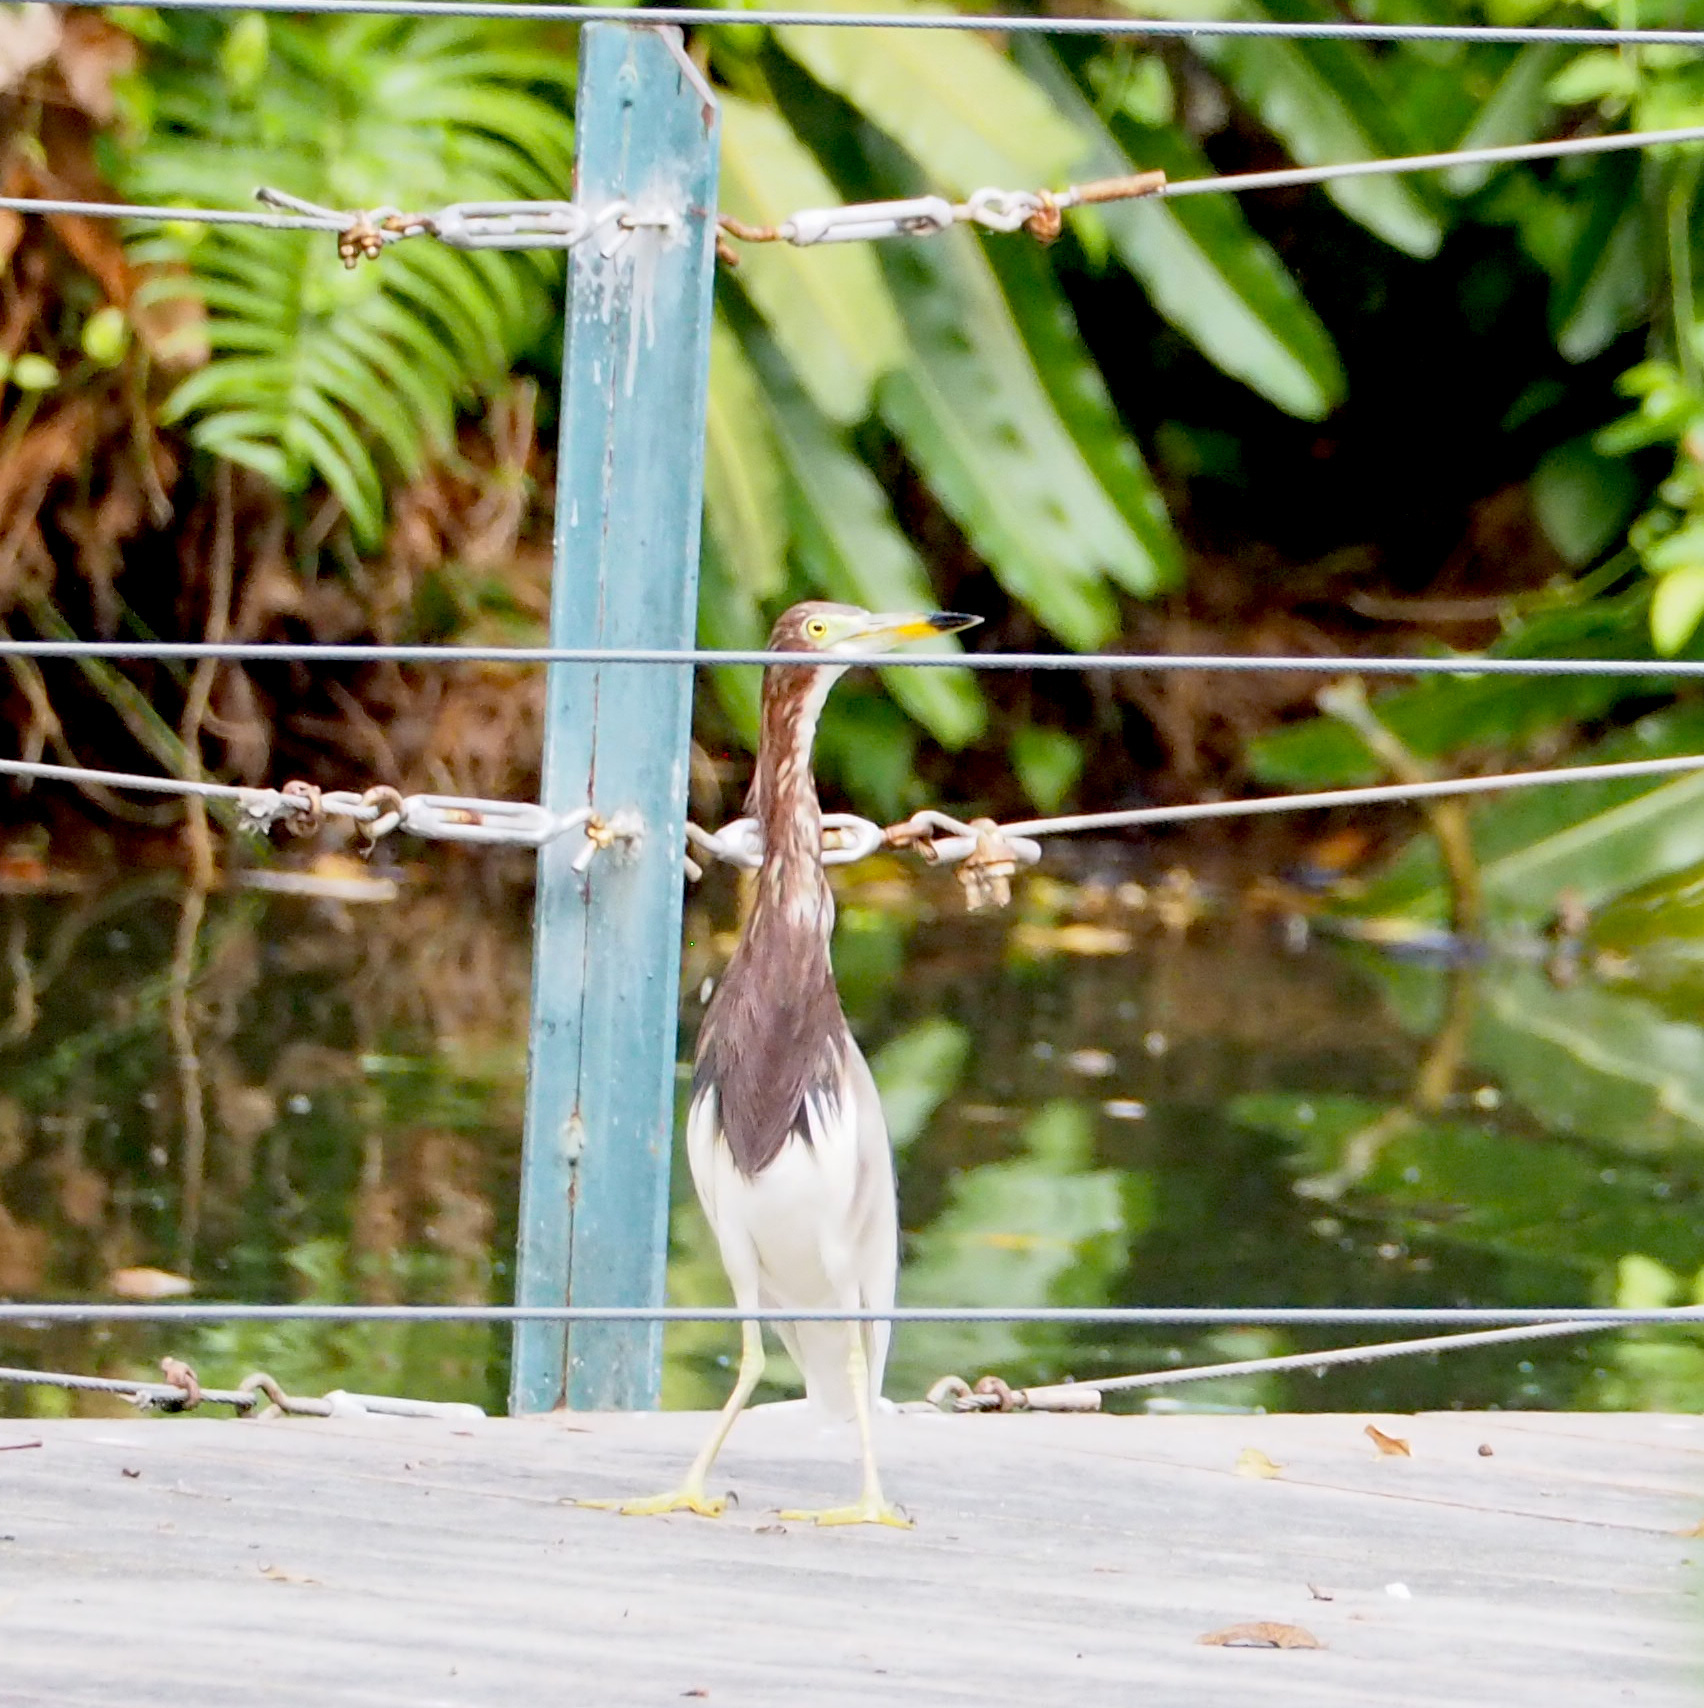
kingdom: Animalia
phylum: Chordata
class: Aves
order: Pelecaniformes
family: Ardeidae
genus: Ardeola
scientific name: Ardeola bacchus
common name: Chinese pond heron
